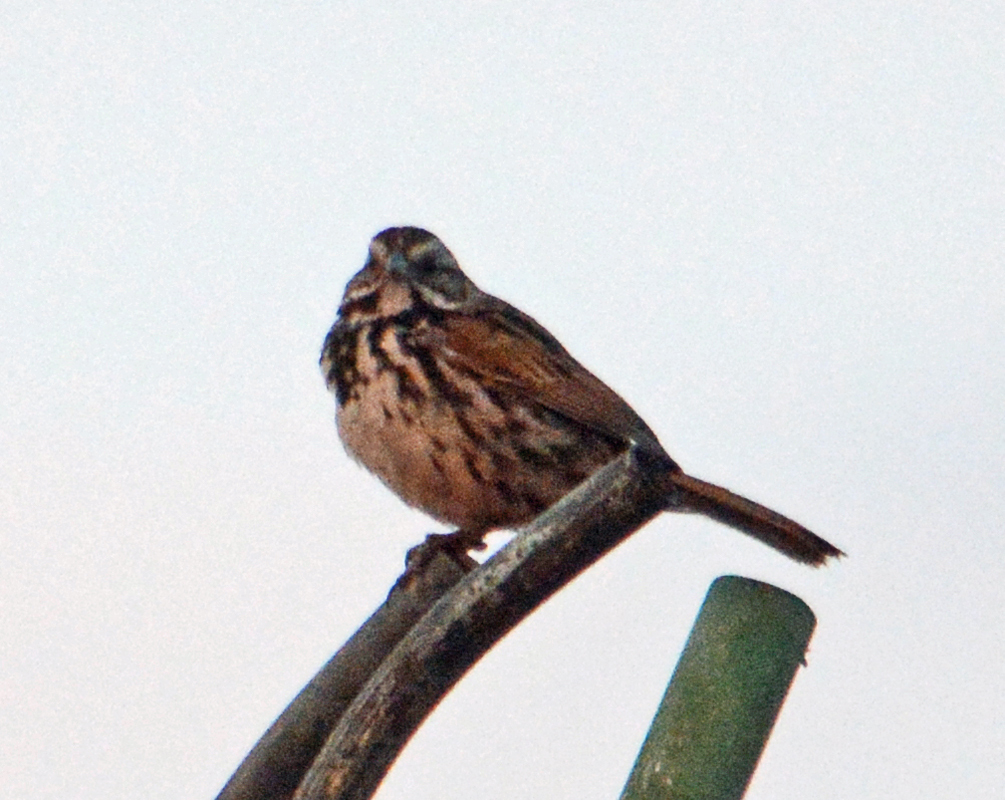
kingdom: Animalia
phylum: Chordata
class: Aves
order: Passeriformes
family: Passerellidae
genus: Melospiza
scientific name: Melospiza melodia
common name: Song sparrow
